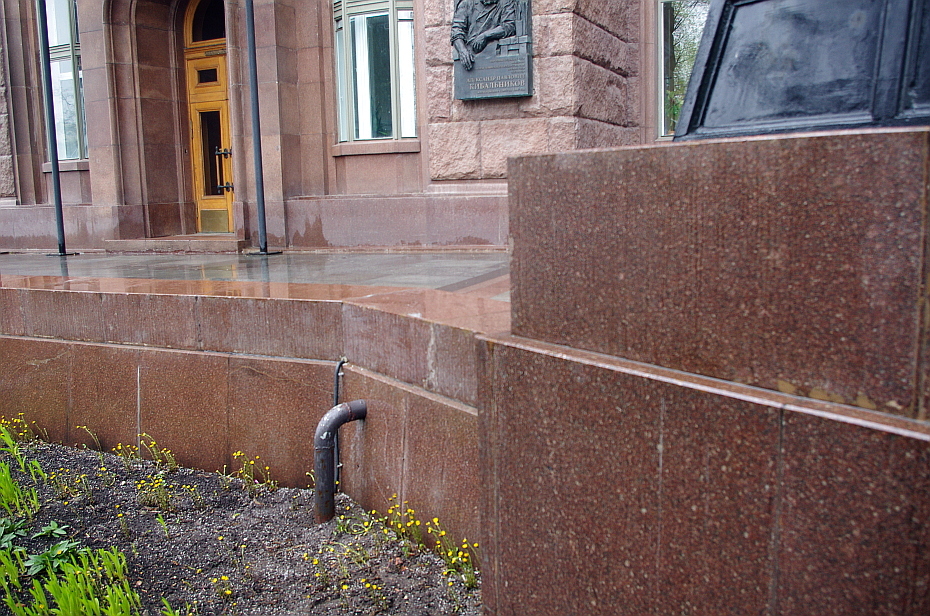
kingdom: Plantae
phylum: Tracheophyta
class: Magnoliopsida
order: Asterales
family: Asteraceae
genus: Tussilago
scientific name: Tussilago farfara
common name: Coltsfoot
